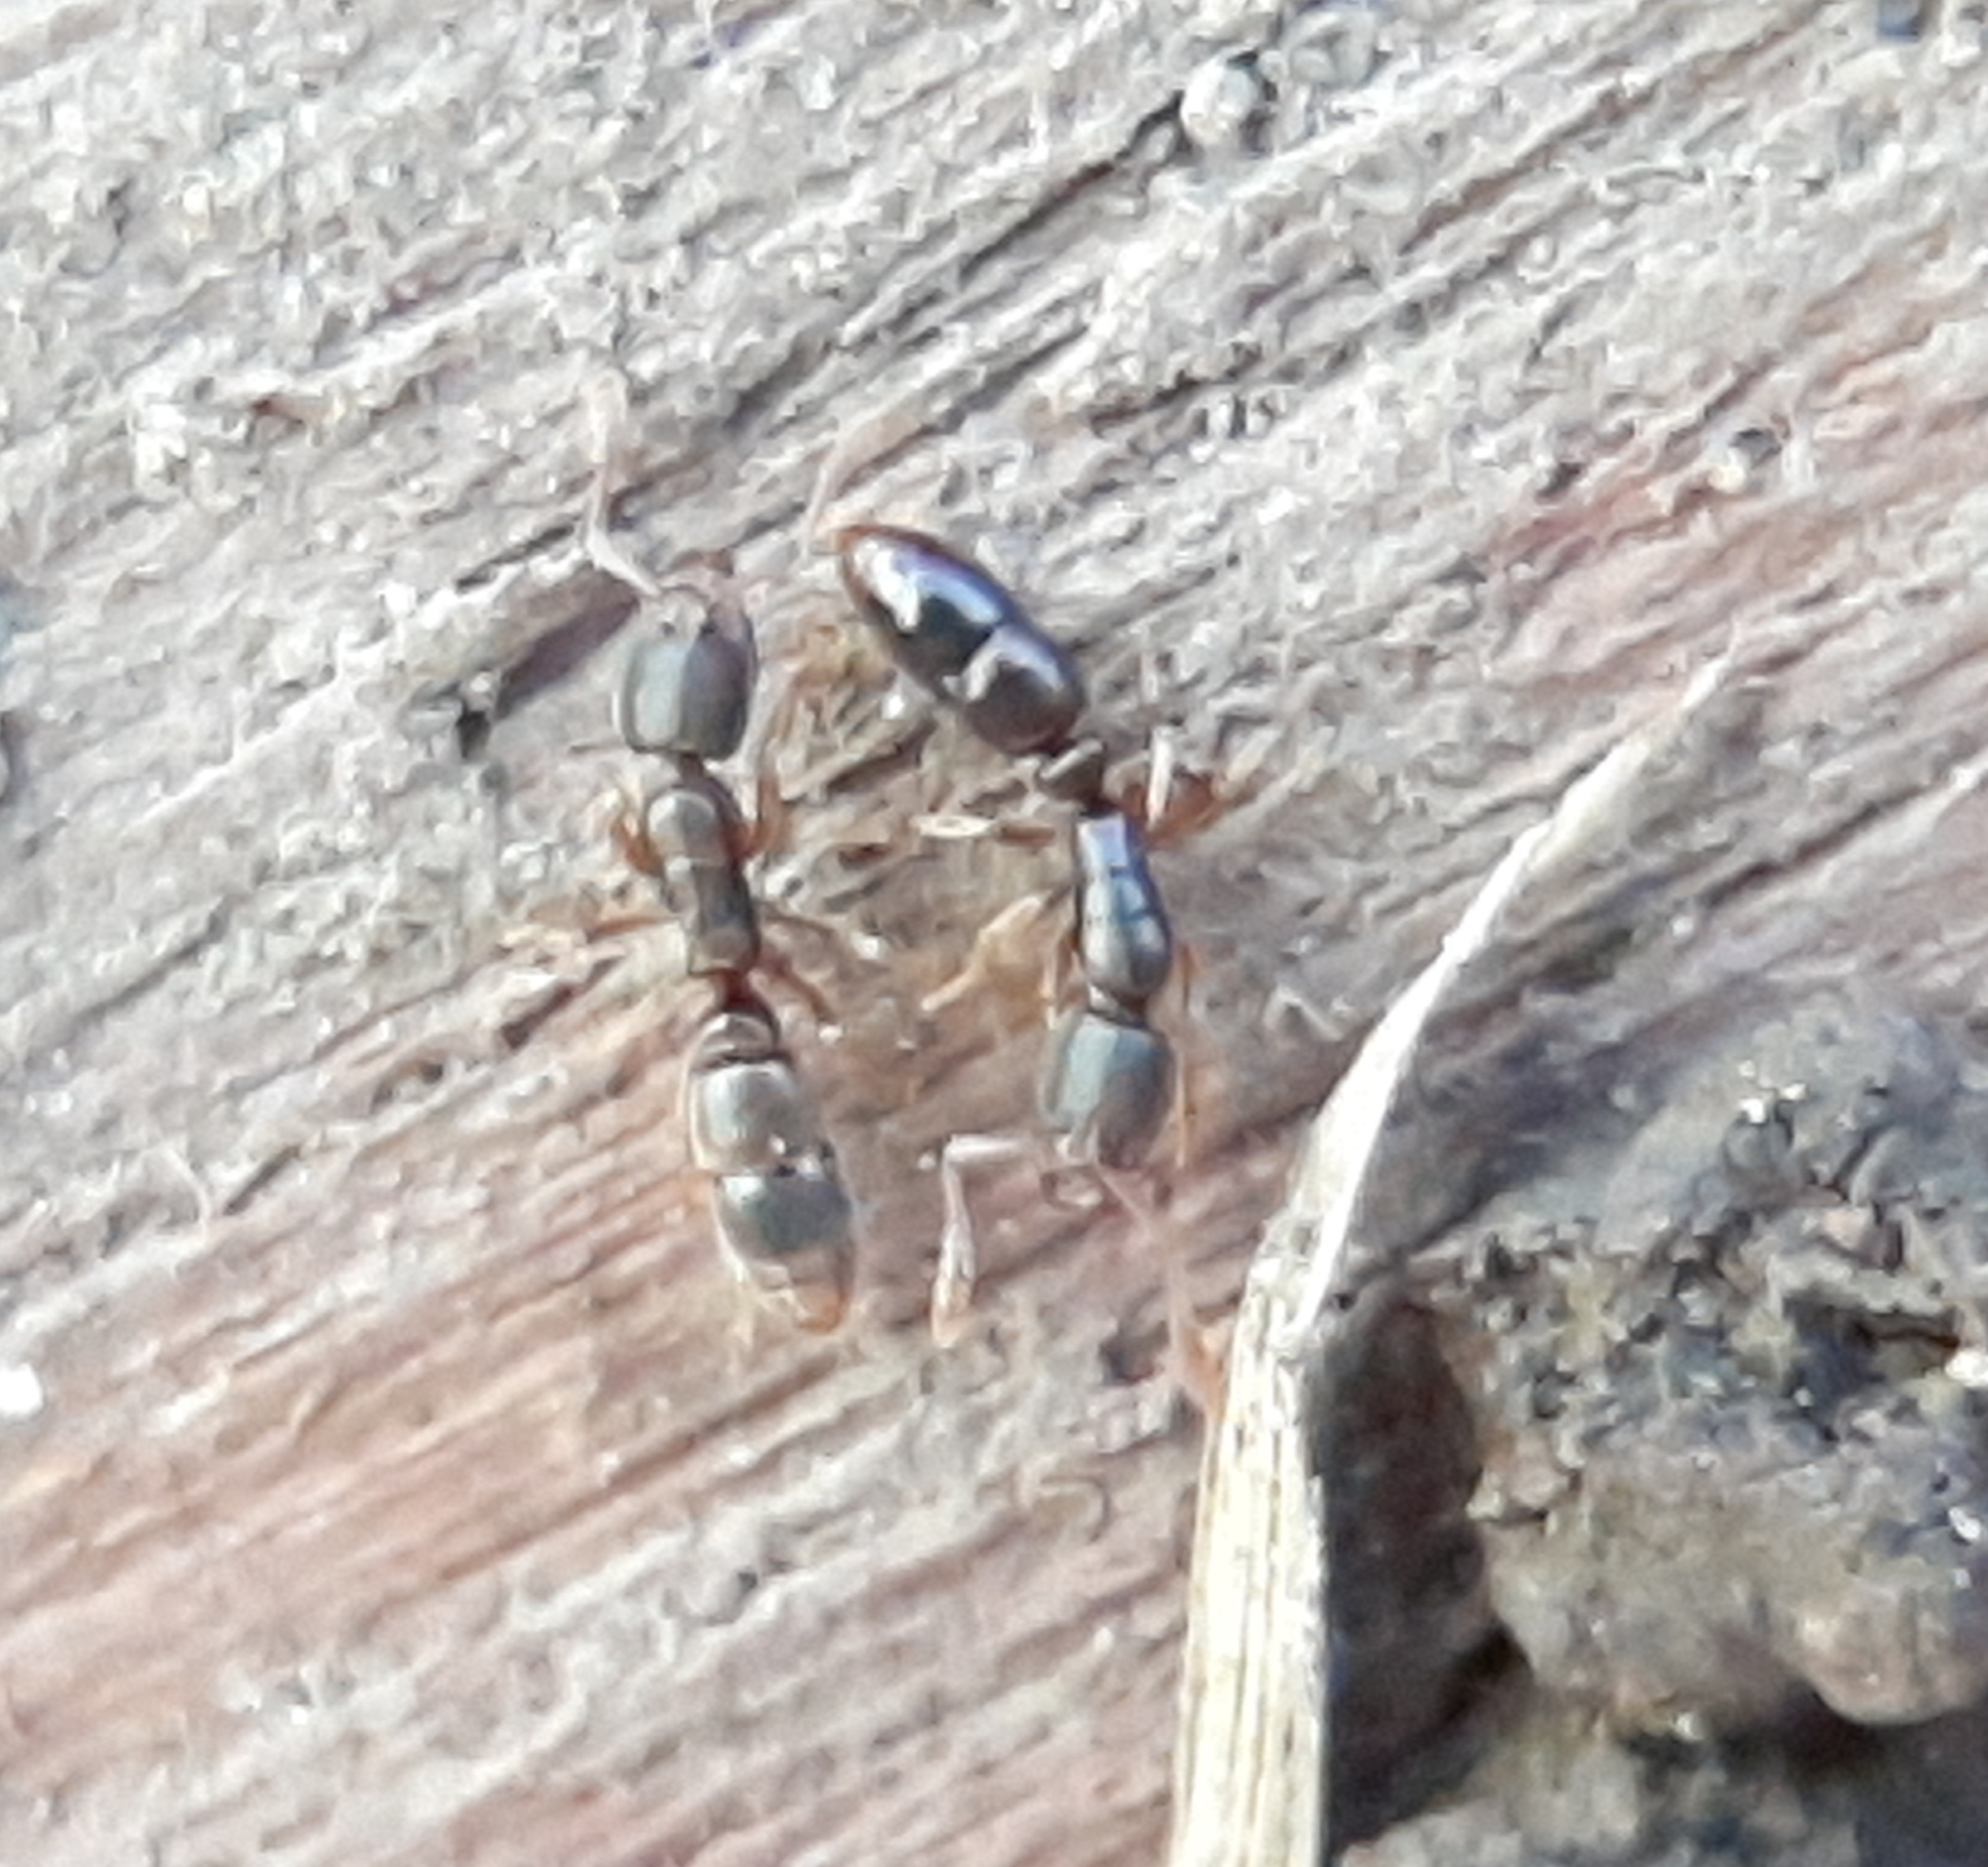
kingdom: Animalia
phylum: Arthropoda
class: Insecta
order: Hymenoptera
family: Formicidae
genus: Ponera
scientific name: Ponera pennsylvanica
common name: Pennsylvania ponera
